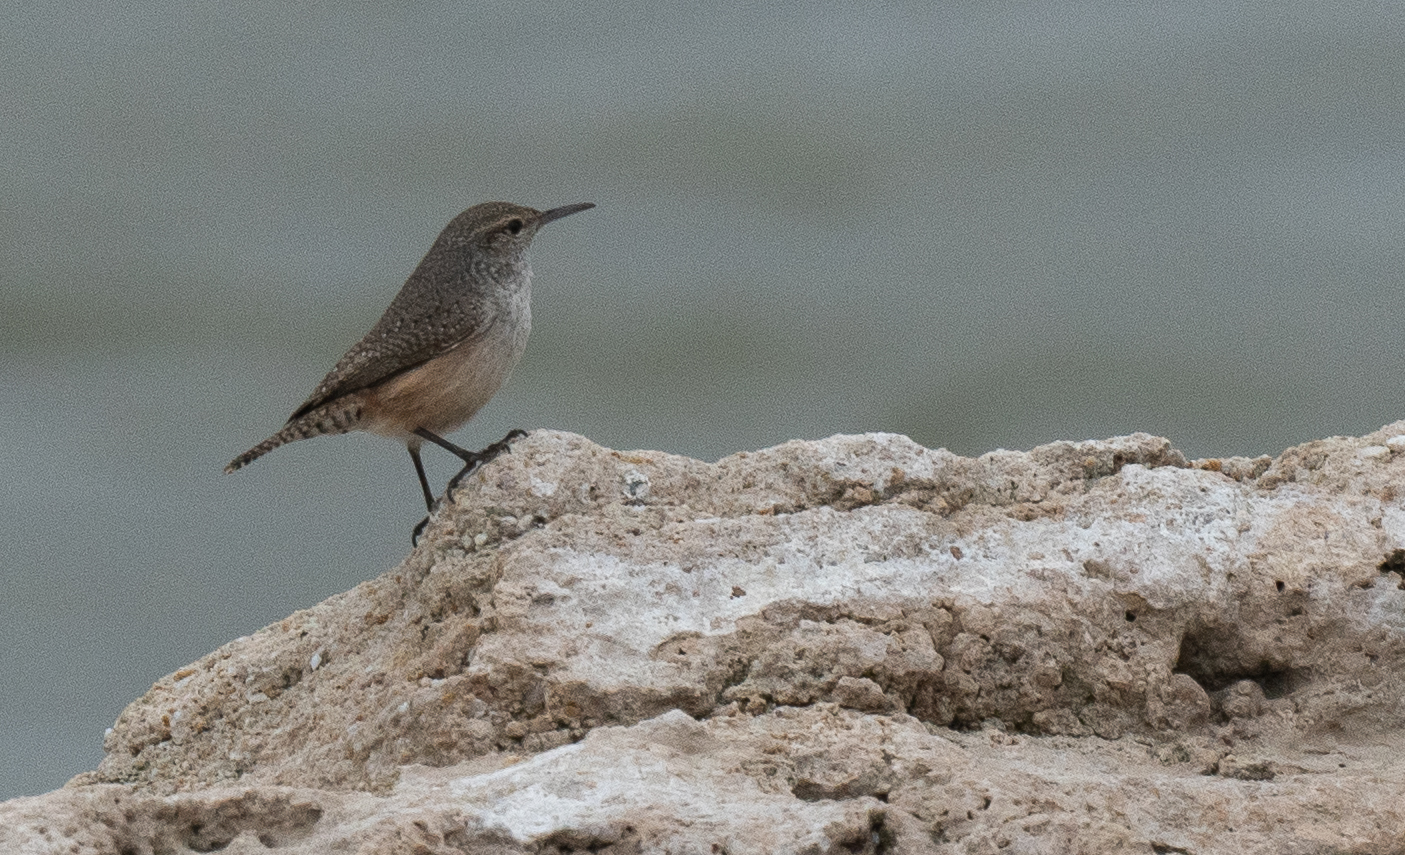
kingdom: Animalia
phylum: Chordata
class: Aves
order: Passeriformes
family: Troglodytidae
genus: Salpinctes
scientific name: Salpinctes obsoletus
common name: Rock wren
